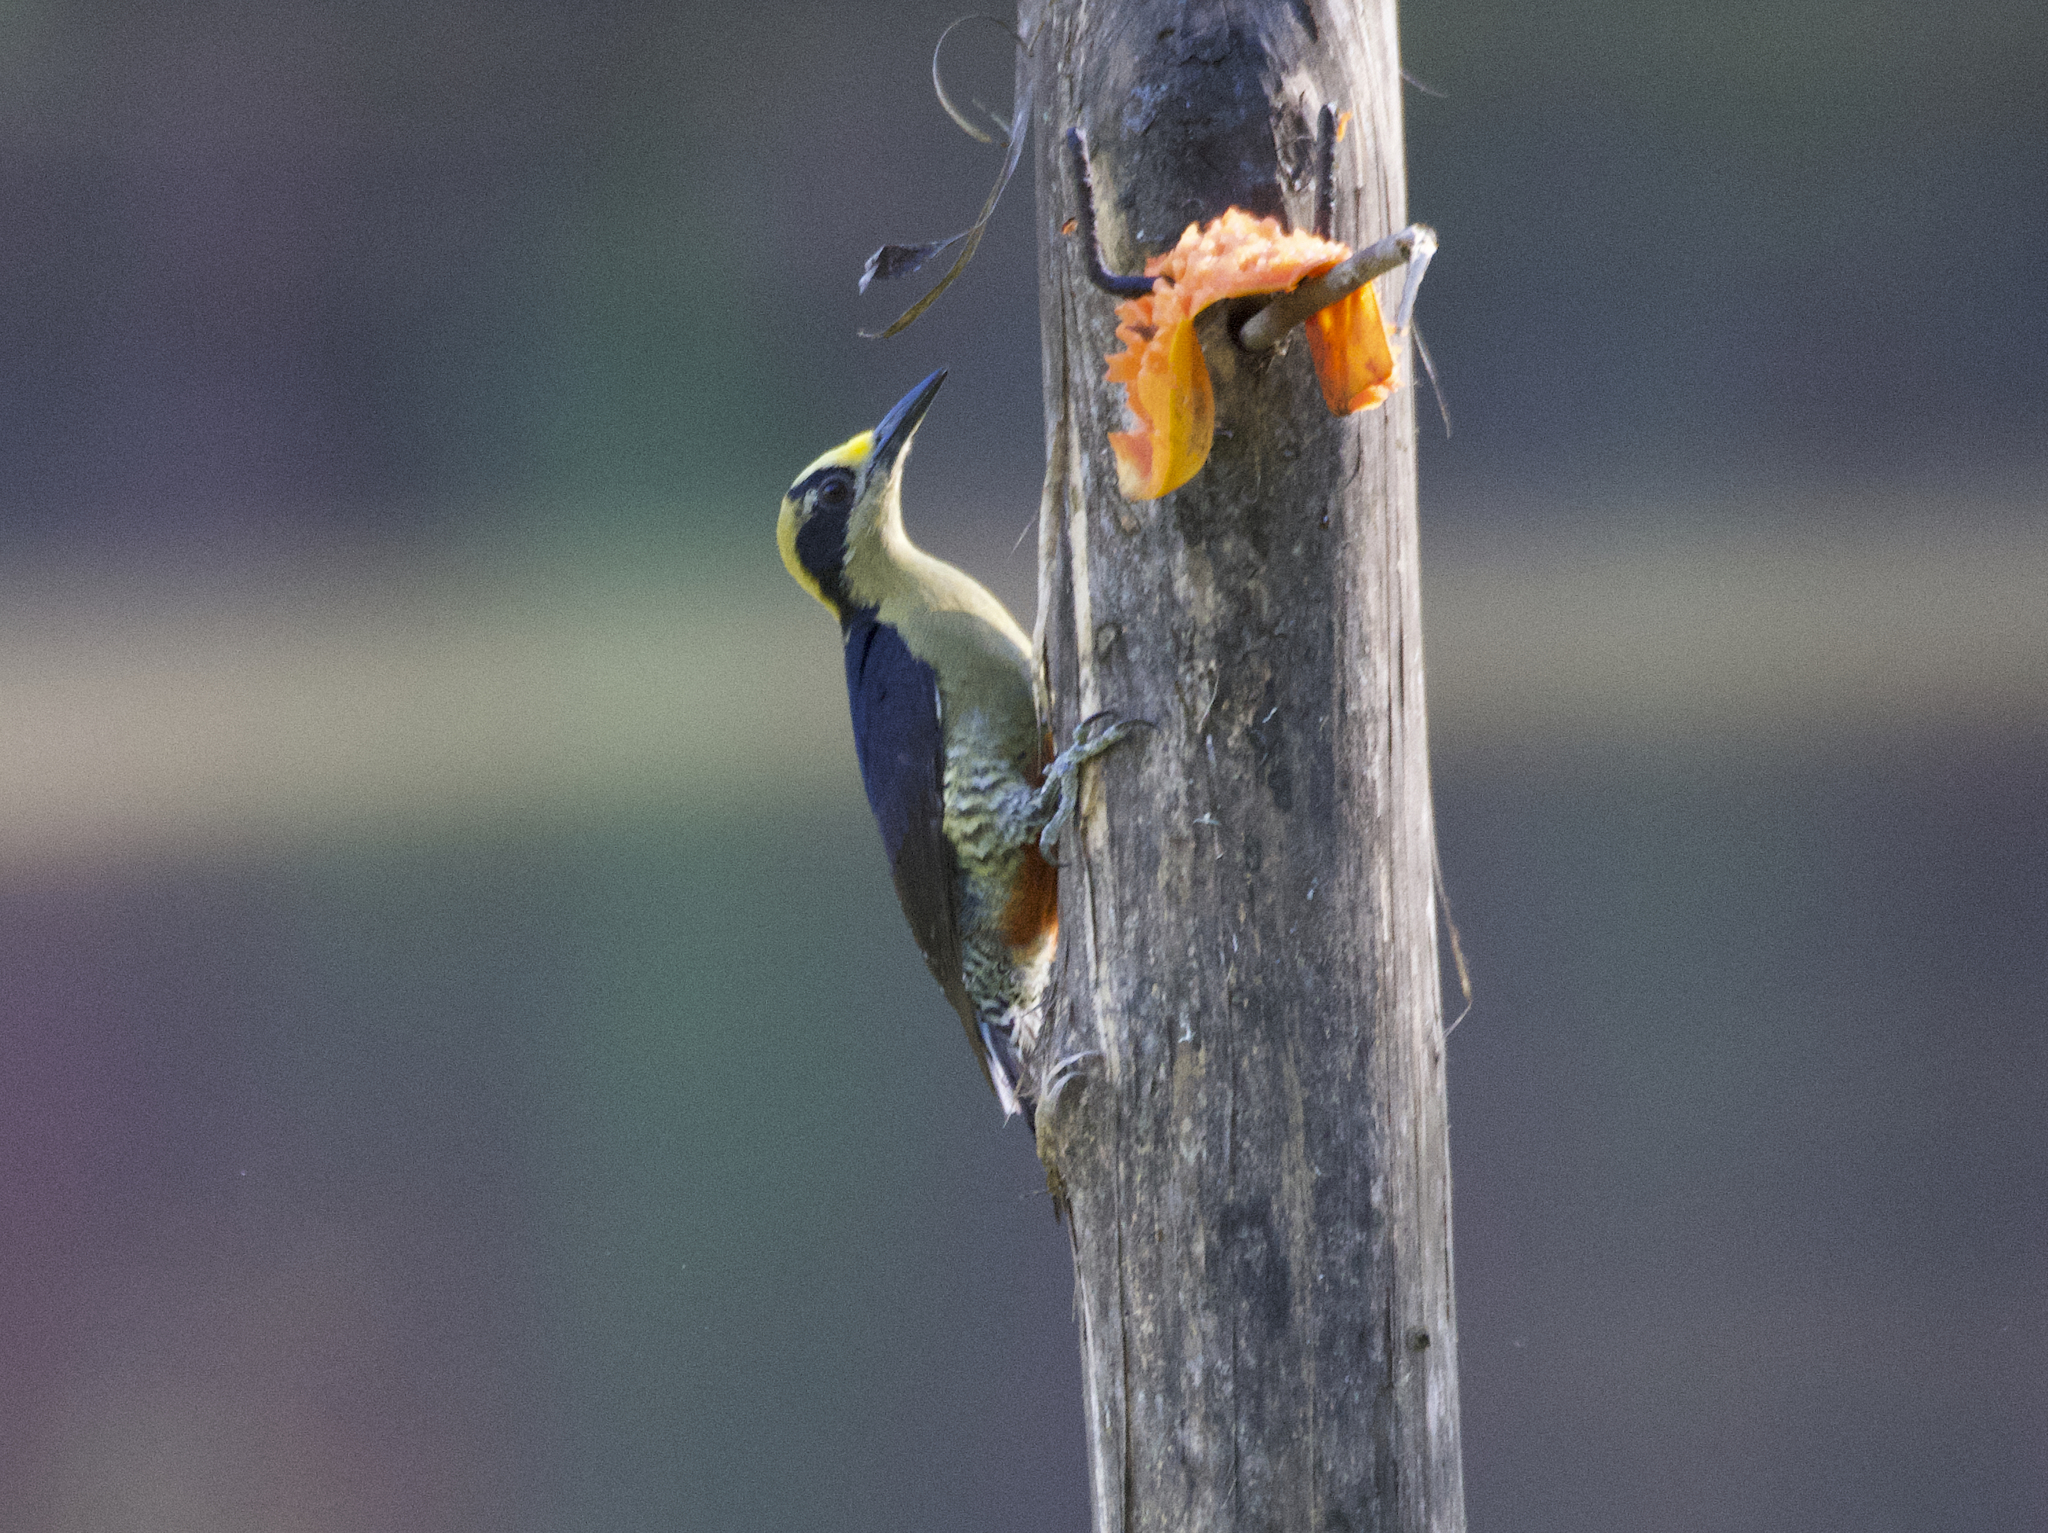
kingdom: Animalia
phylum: Chordata
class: Aves
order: Piciformes
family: Picidae
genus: Melanerpes
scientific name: Melanerpes chrysauchen
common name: Golden-naped woodpecker
